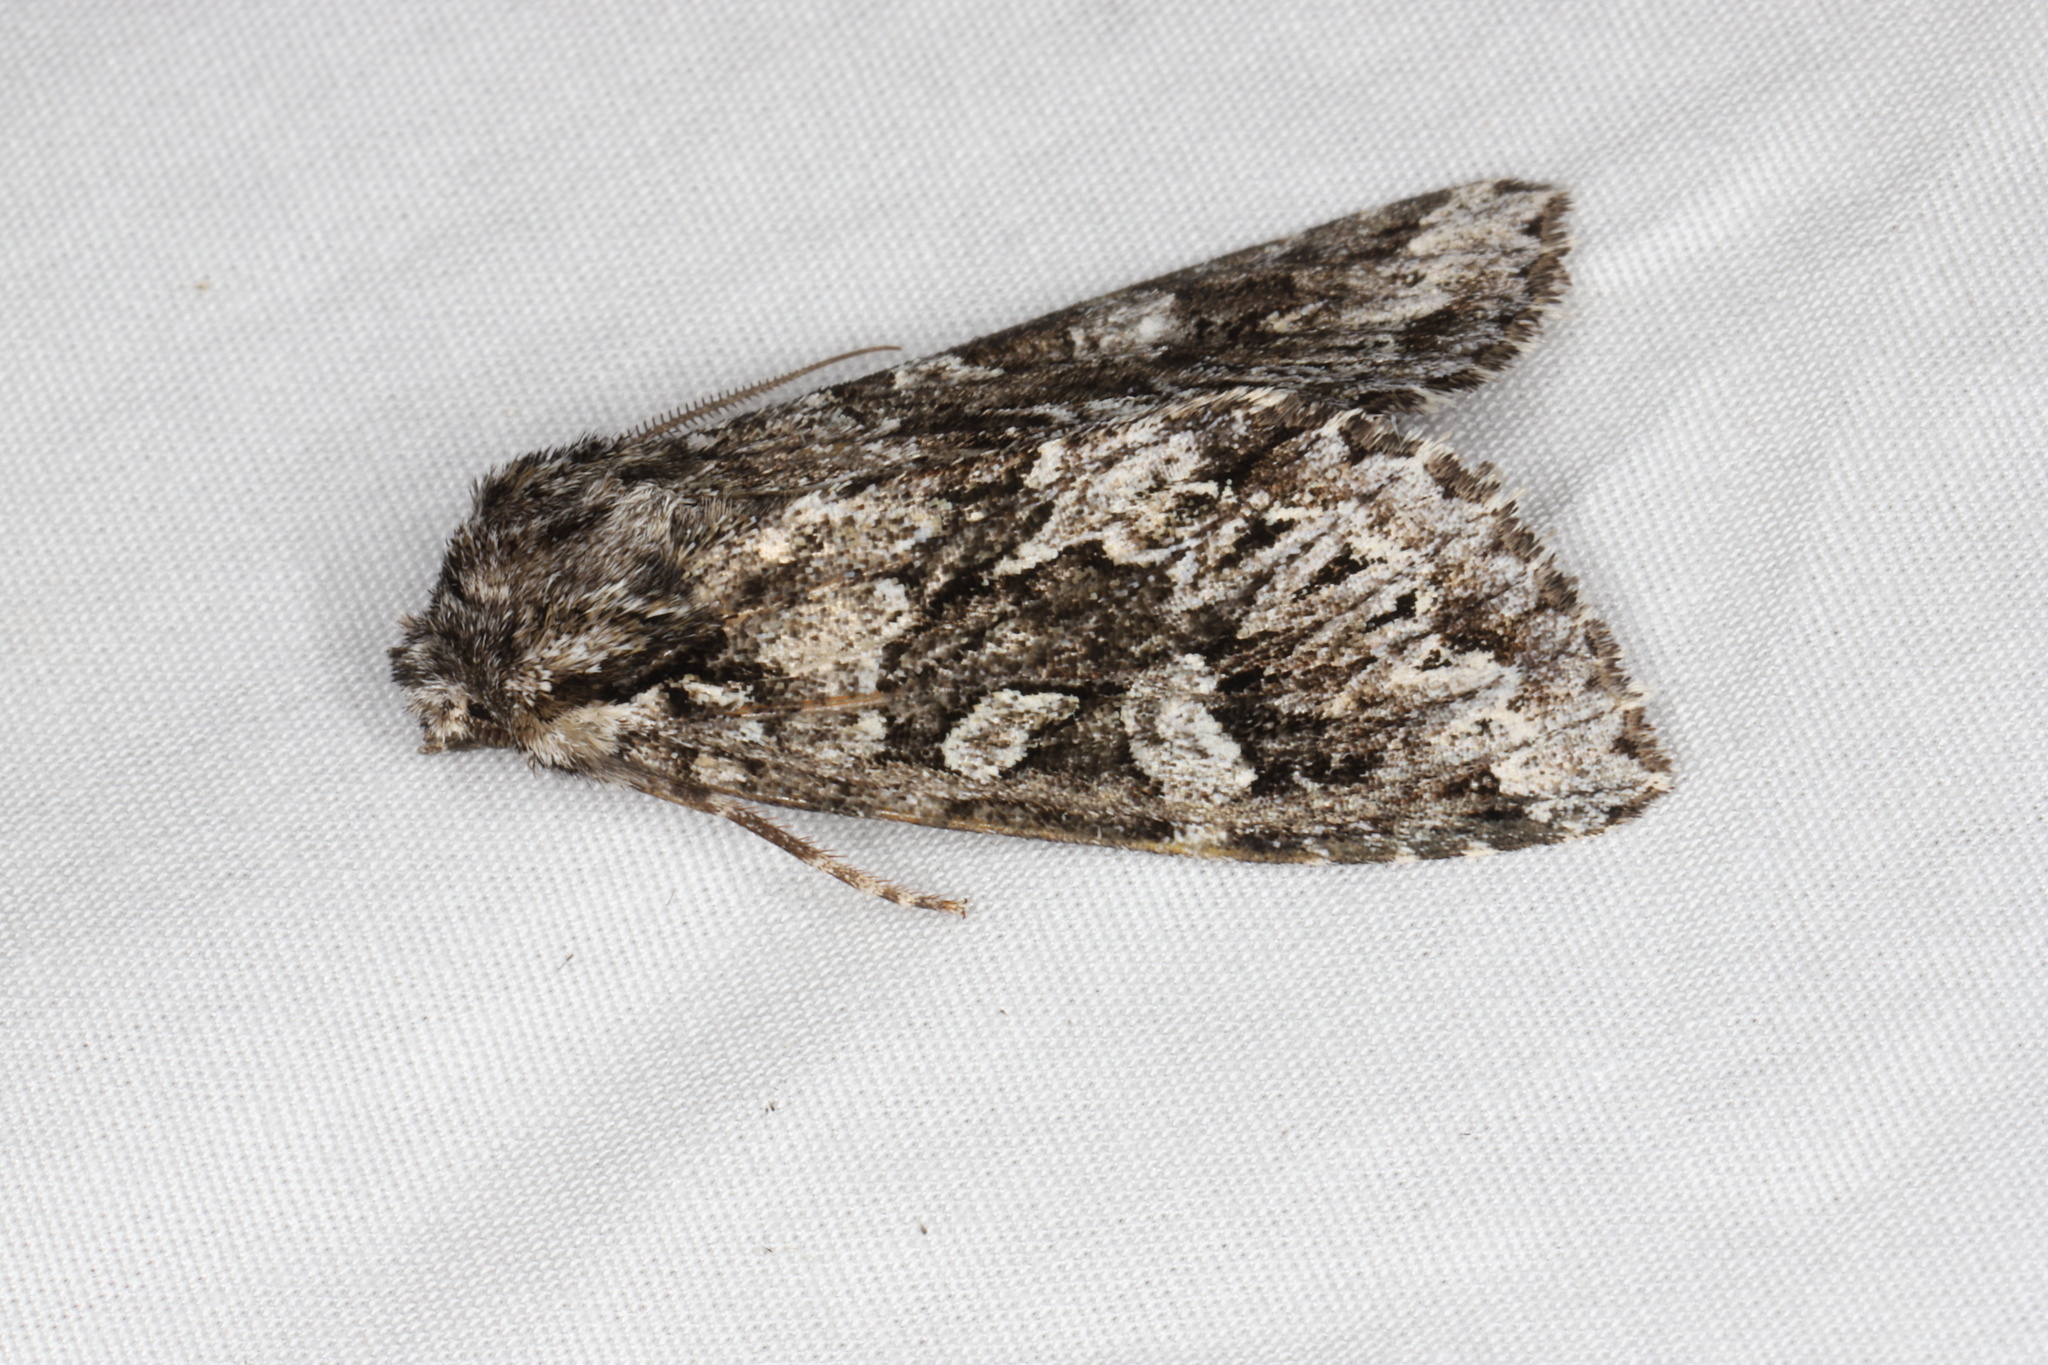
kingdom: Animalia
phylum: Arthropoda
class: Insecta
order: Lepidoptera
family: Noctuidae
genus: Platypolia
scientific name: Platypolia anceps
